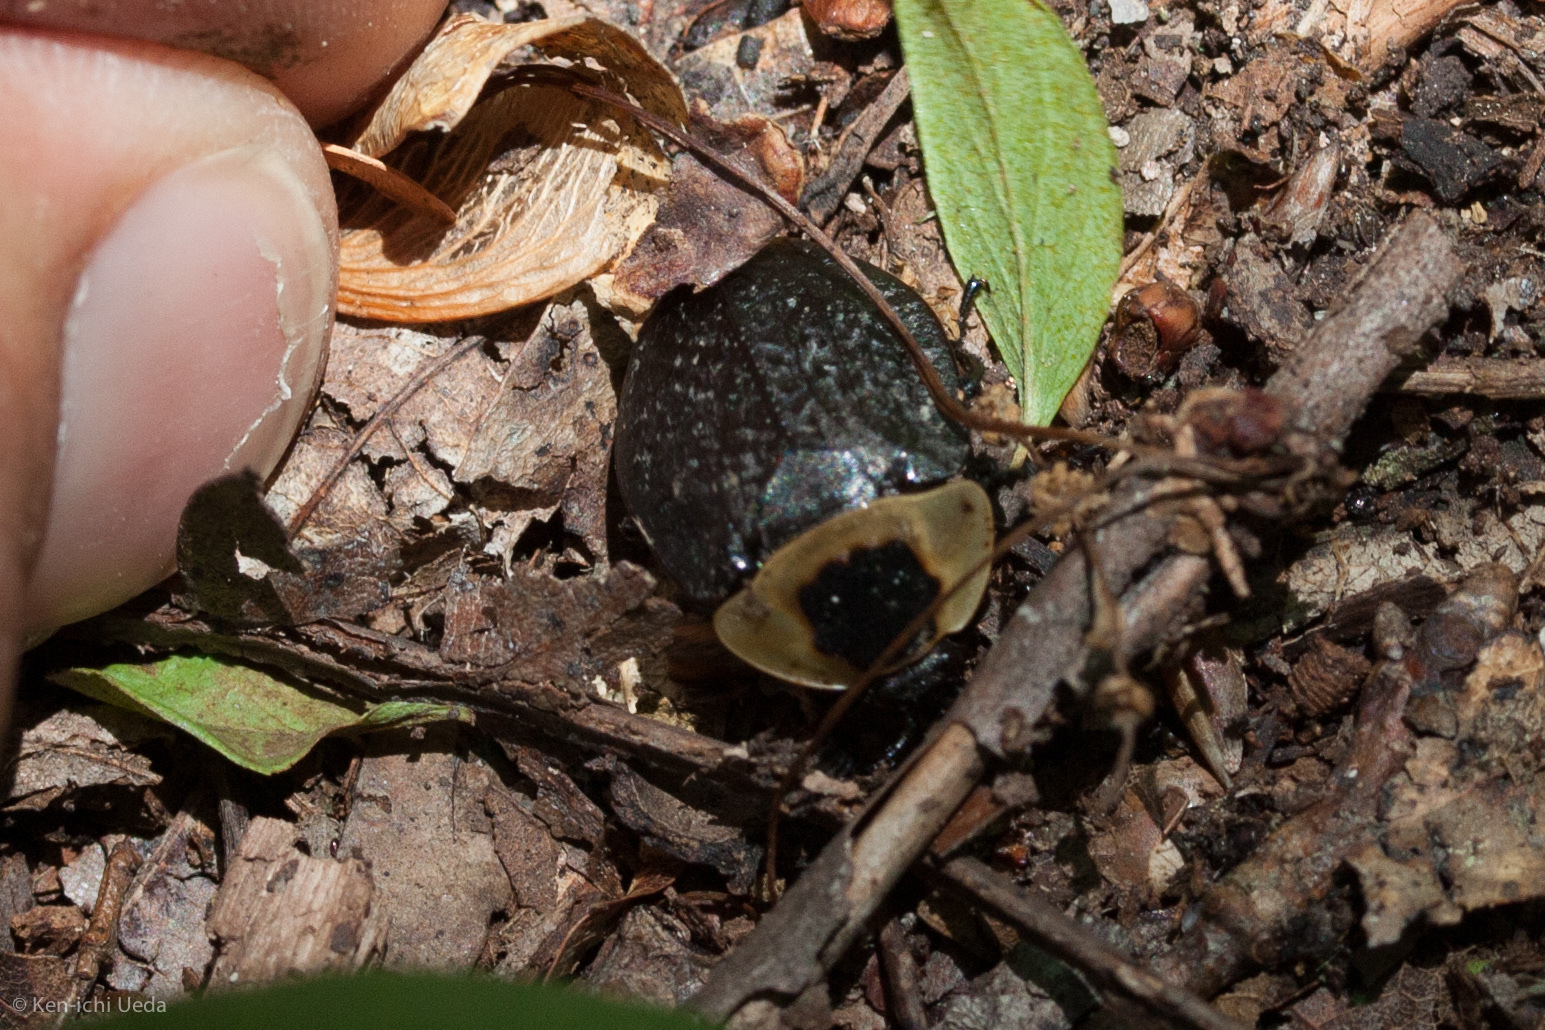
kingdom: Animalia
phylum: Arthropoda
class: Insecta
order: Coleoptera
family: Staphylinidae
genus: Necrophila
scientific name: Necrophila americana
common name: American carrion beetle
